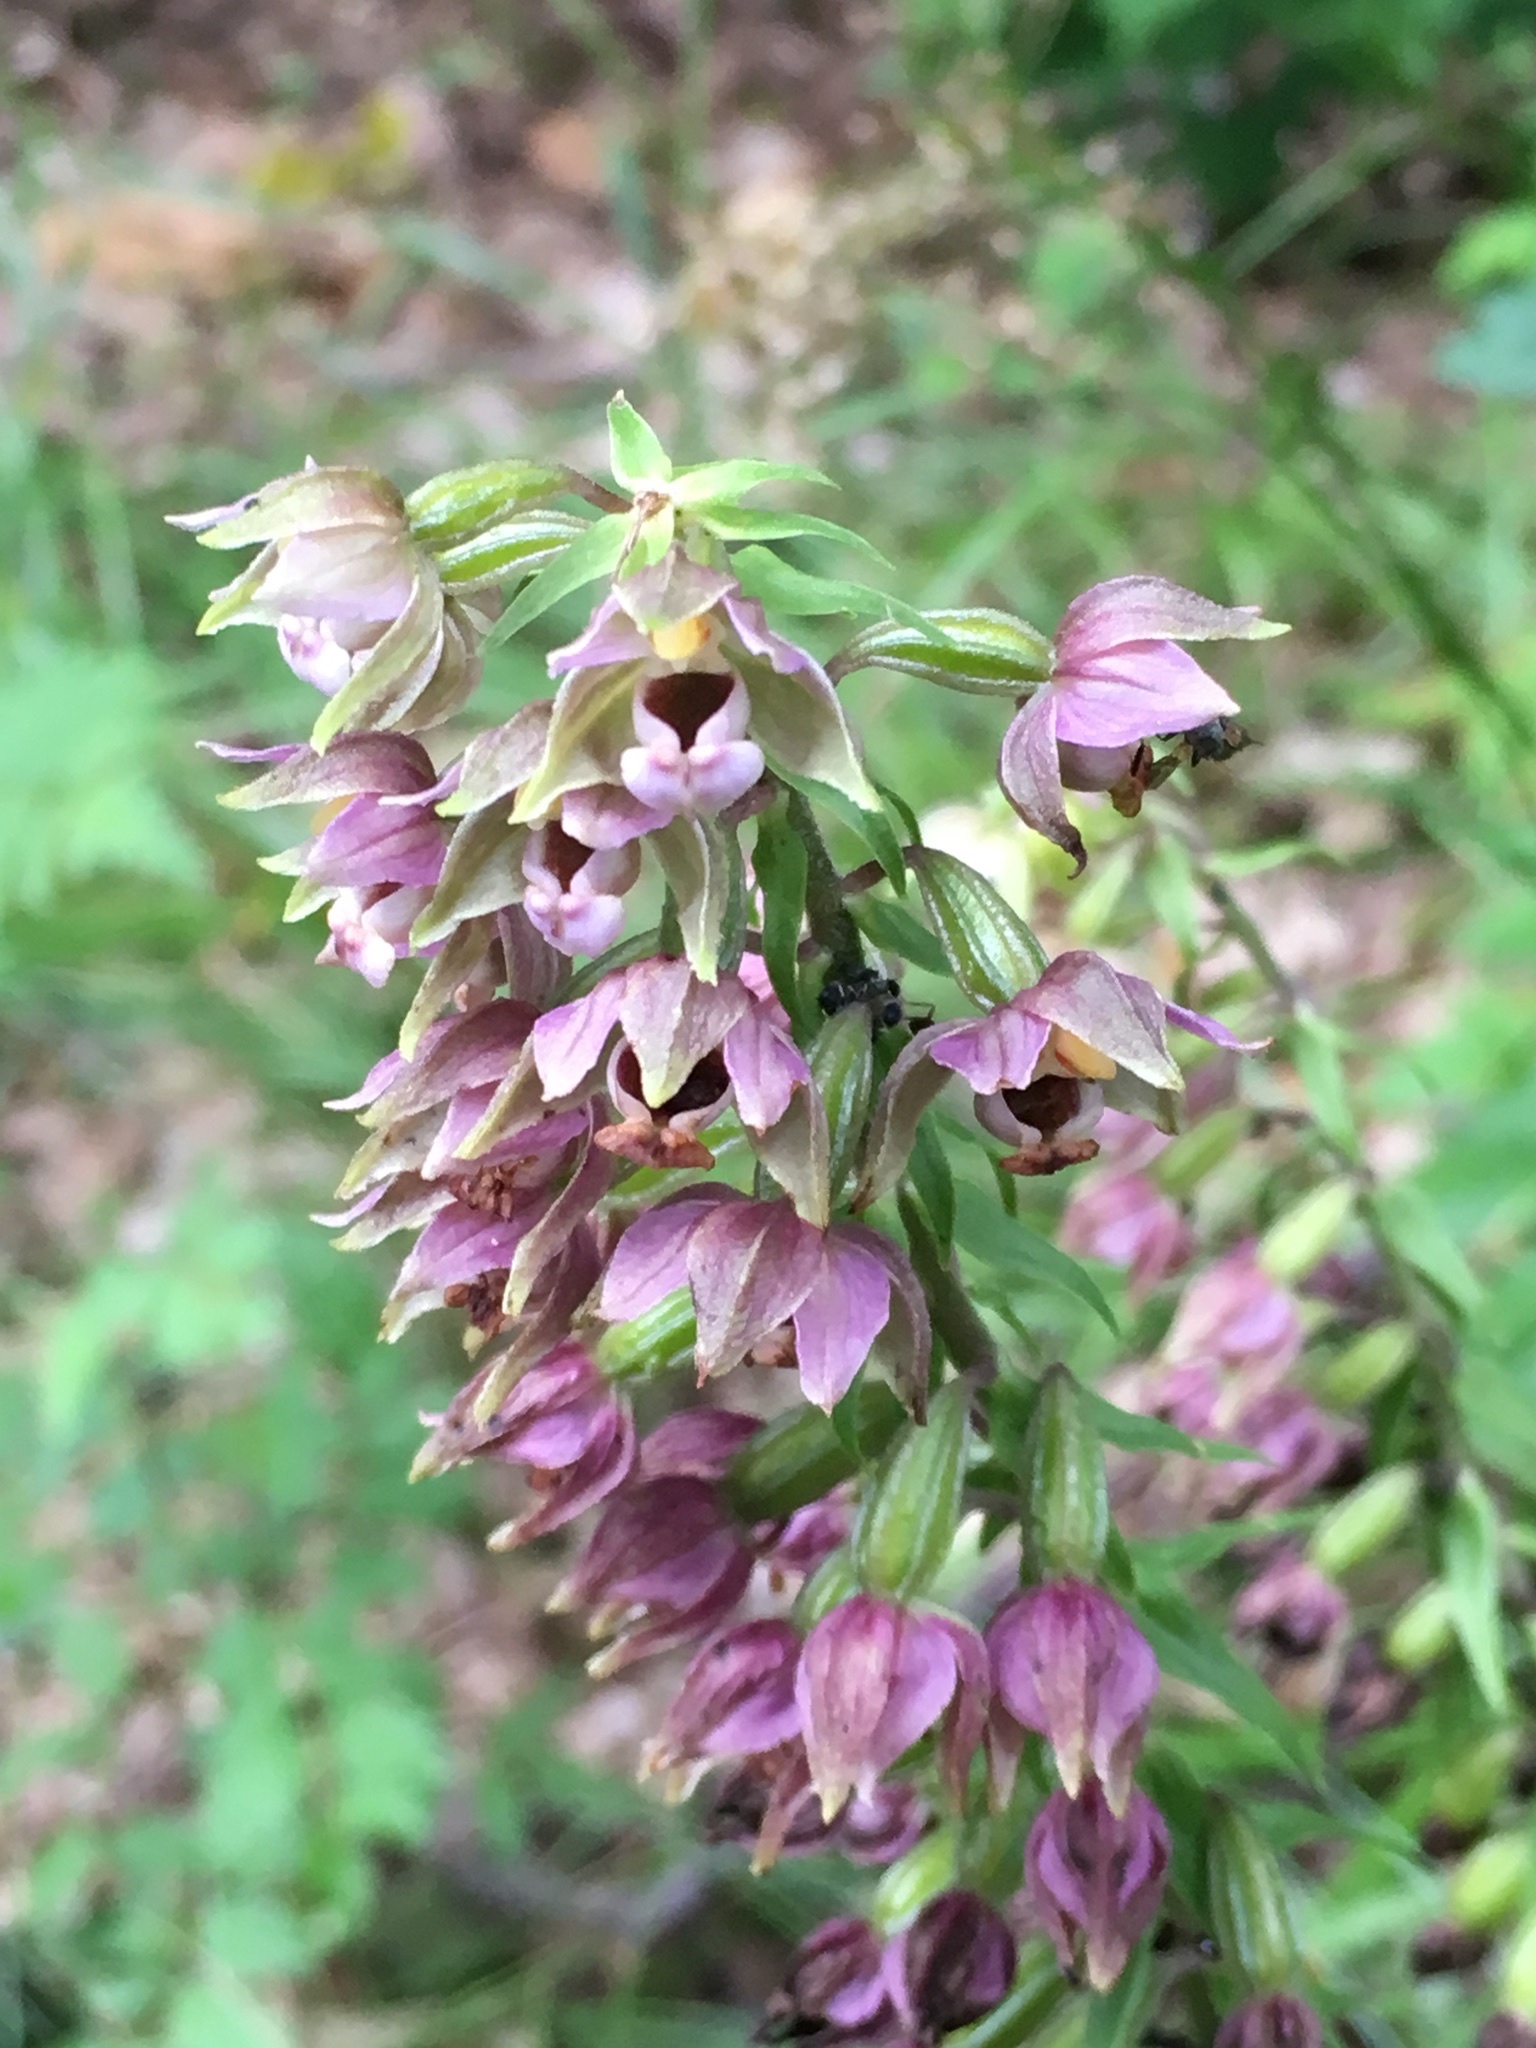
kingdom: Plantae
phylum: Tracheophyta
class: Liliopsida
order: Asparagales
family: Orchidaceae
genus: Epipactis
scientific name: Epipactis helleborine
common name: Broad-leaved helleborine
